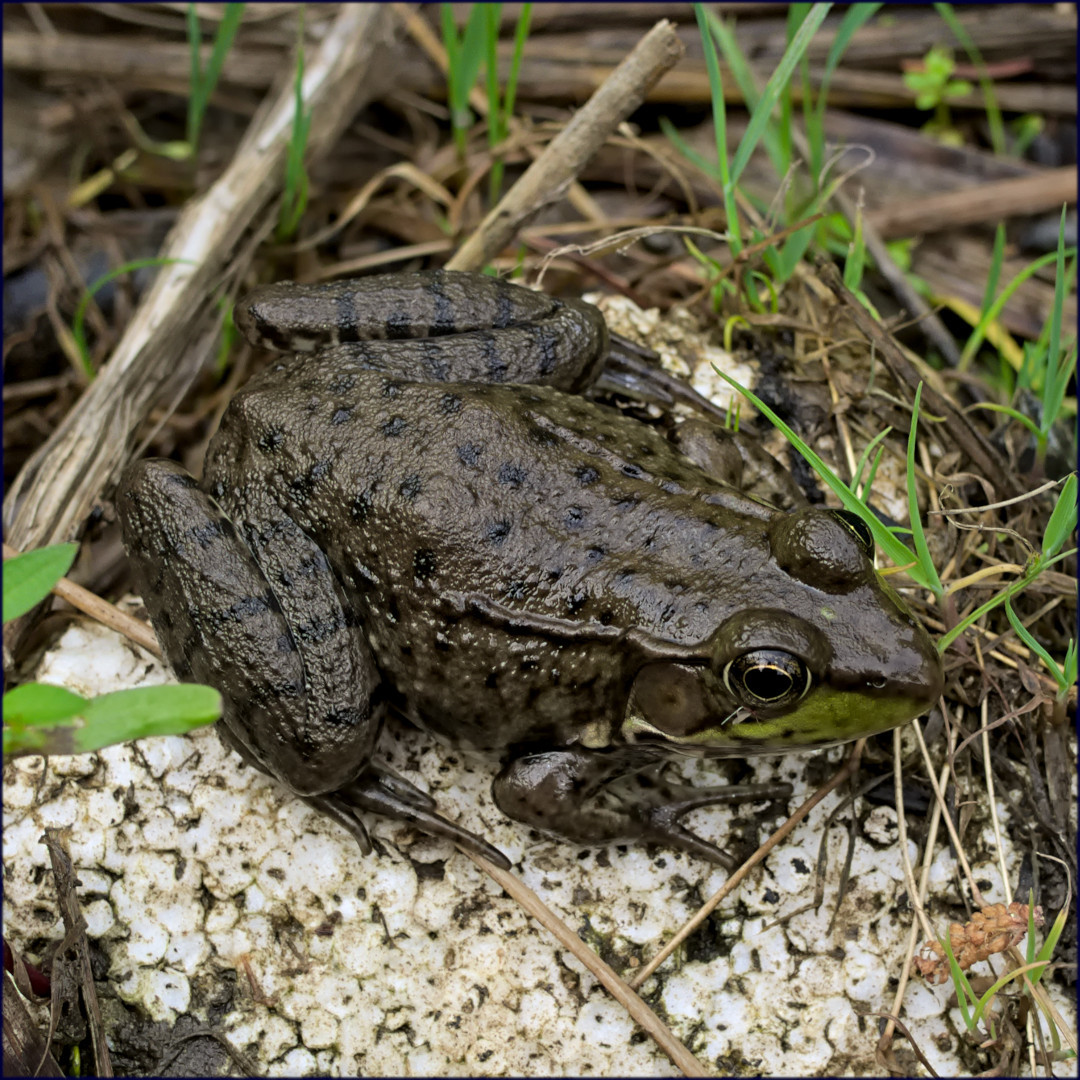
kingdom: Animalia
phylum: Chordata
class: Amphibia
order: Anura
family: Ranidae
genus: Lithobates
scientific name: Lithobates clamitans
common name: Green frog
